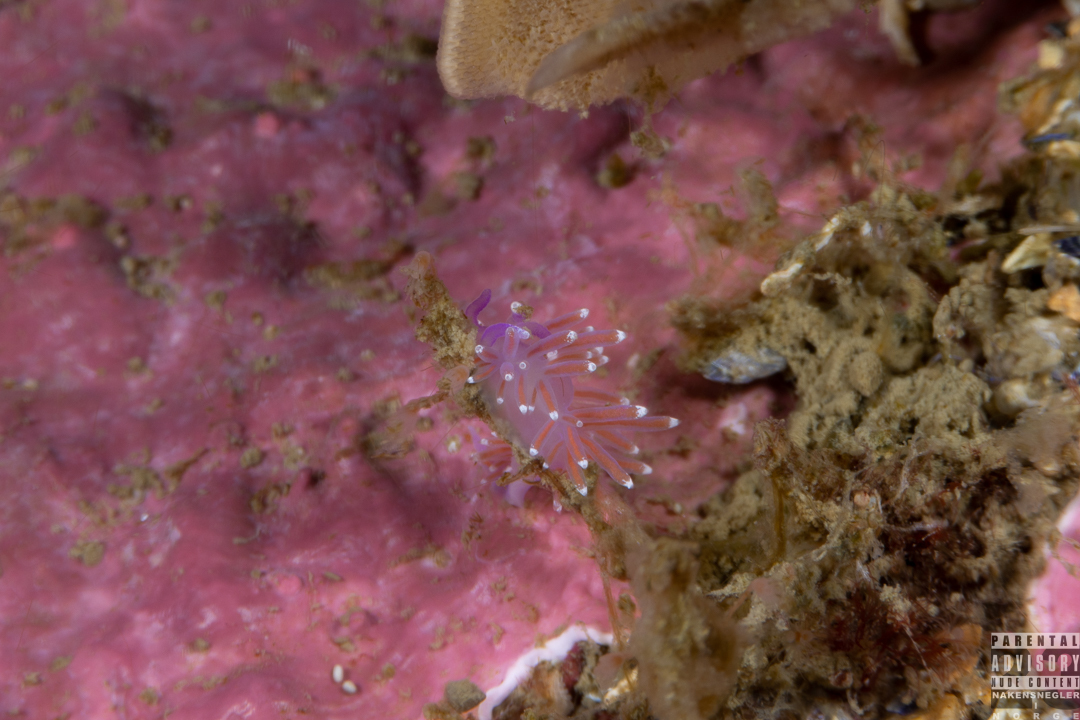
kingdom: Animalia
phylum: Mollusca
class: Gastropoda
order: Nudibranchia
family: Flabellinidae
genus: Edmundsella
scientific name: Edmundsella pedata
